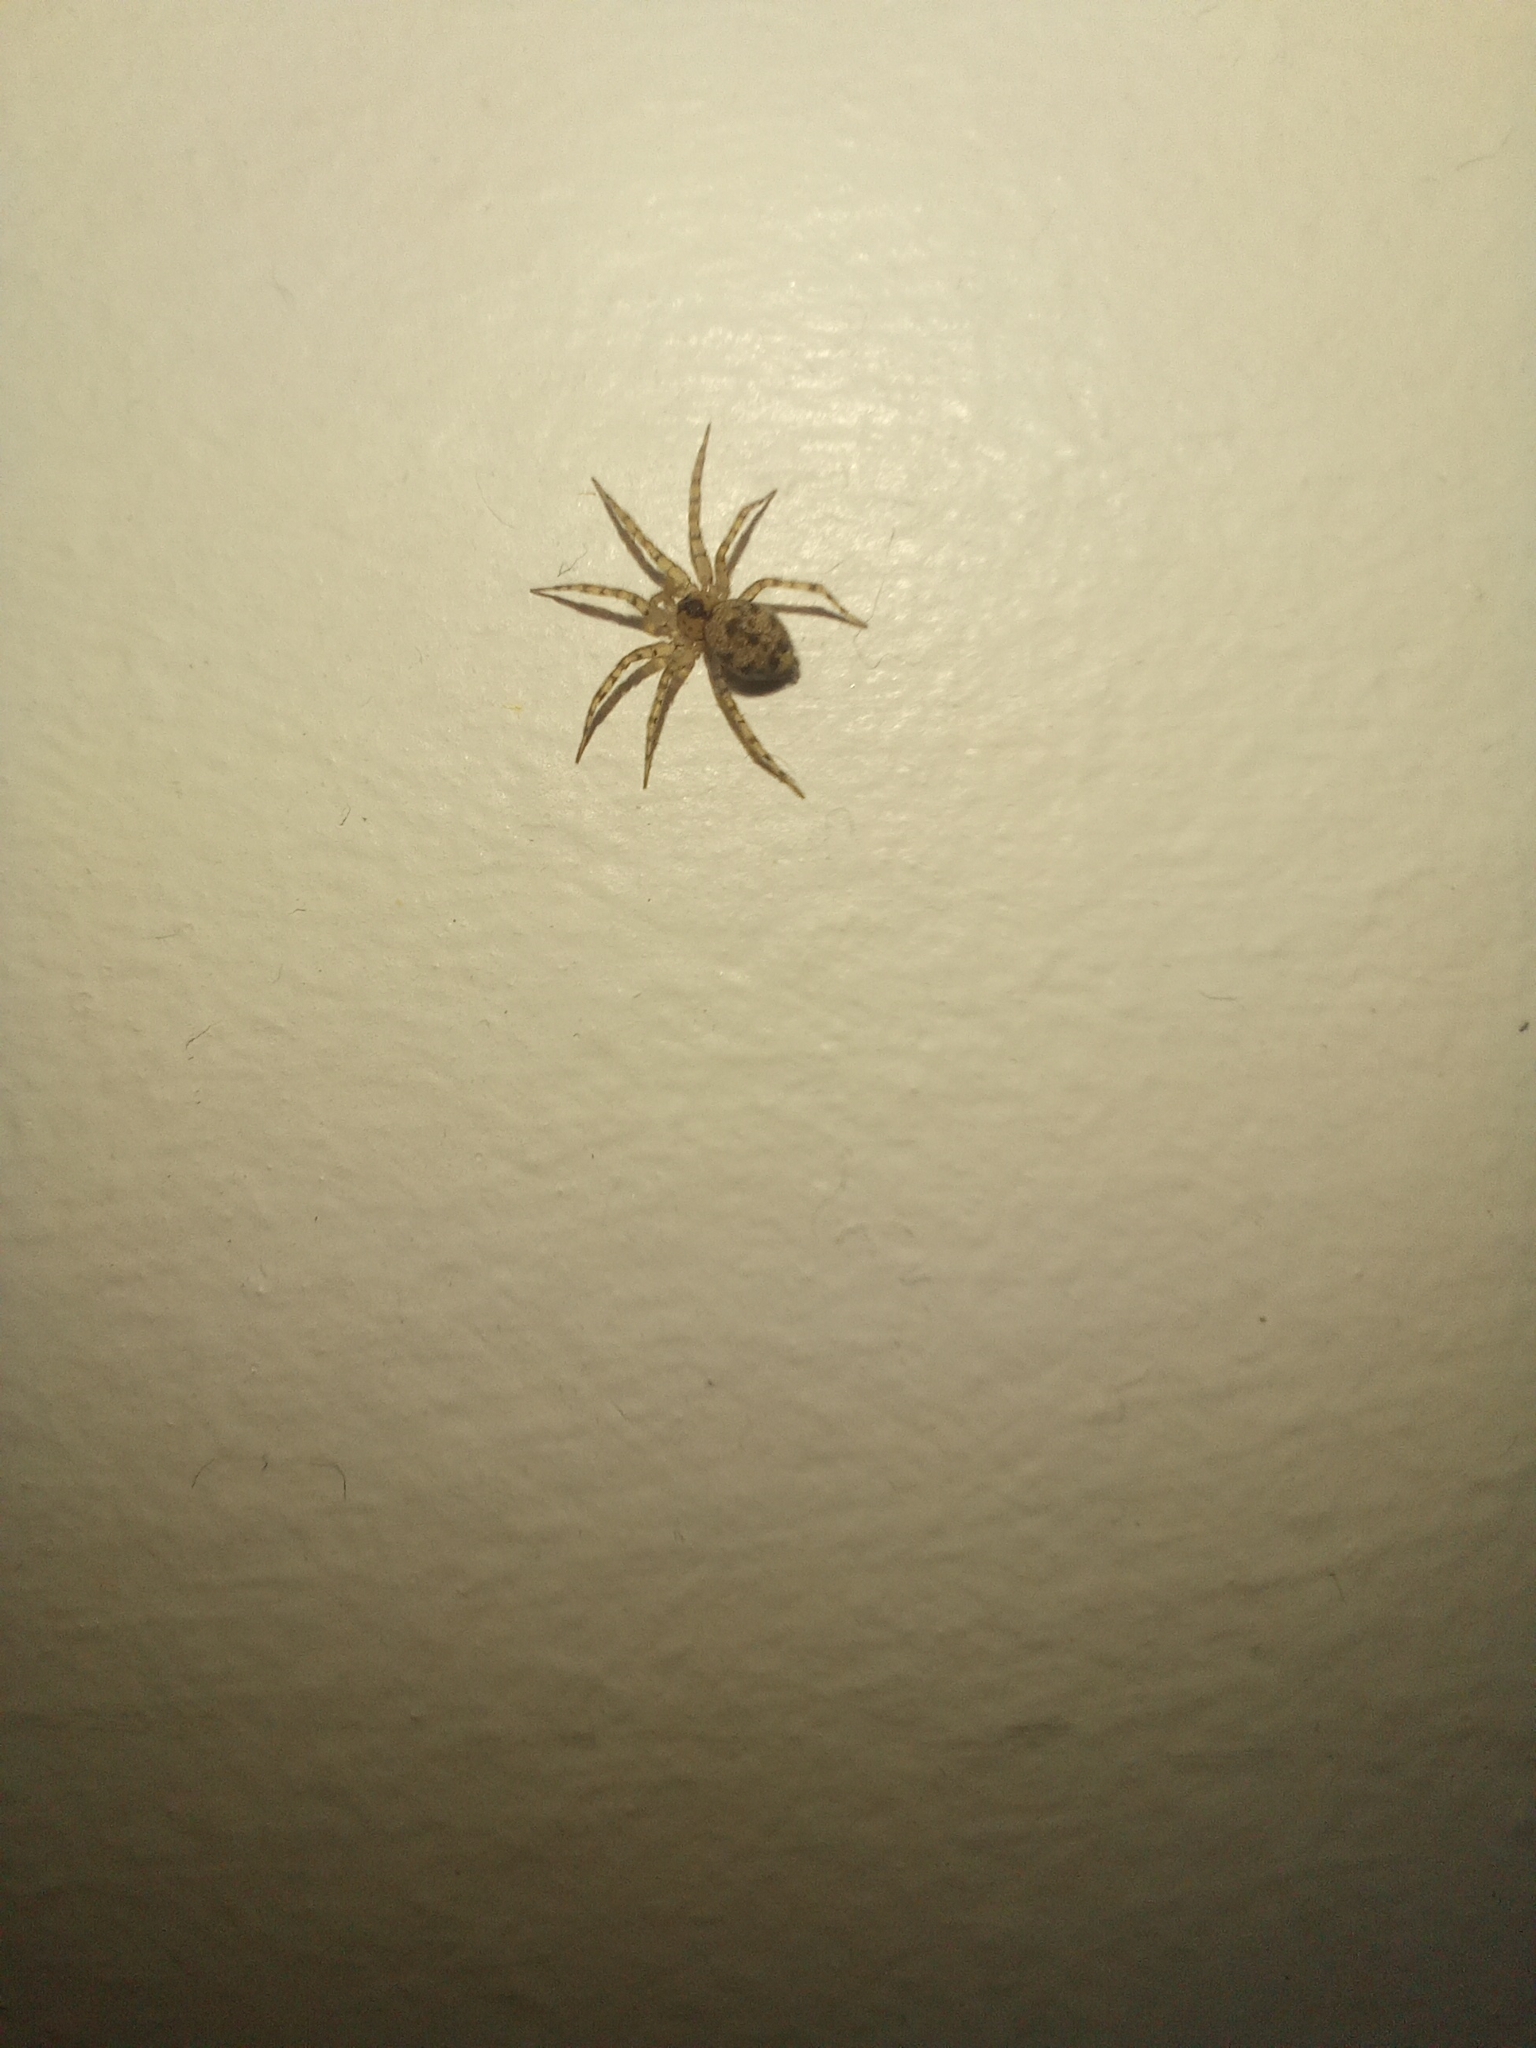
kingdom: Animalia
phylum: Arthropoda
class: Arachnida
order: Araneae
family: Oecobiidae
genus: Oecobius
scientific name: Oecobius navus
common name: Flatmesh weaver
